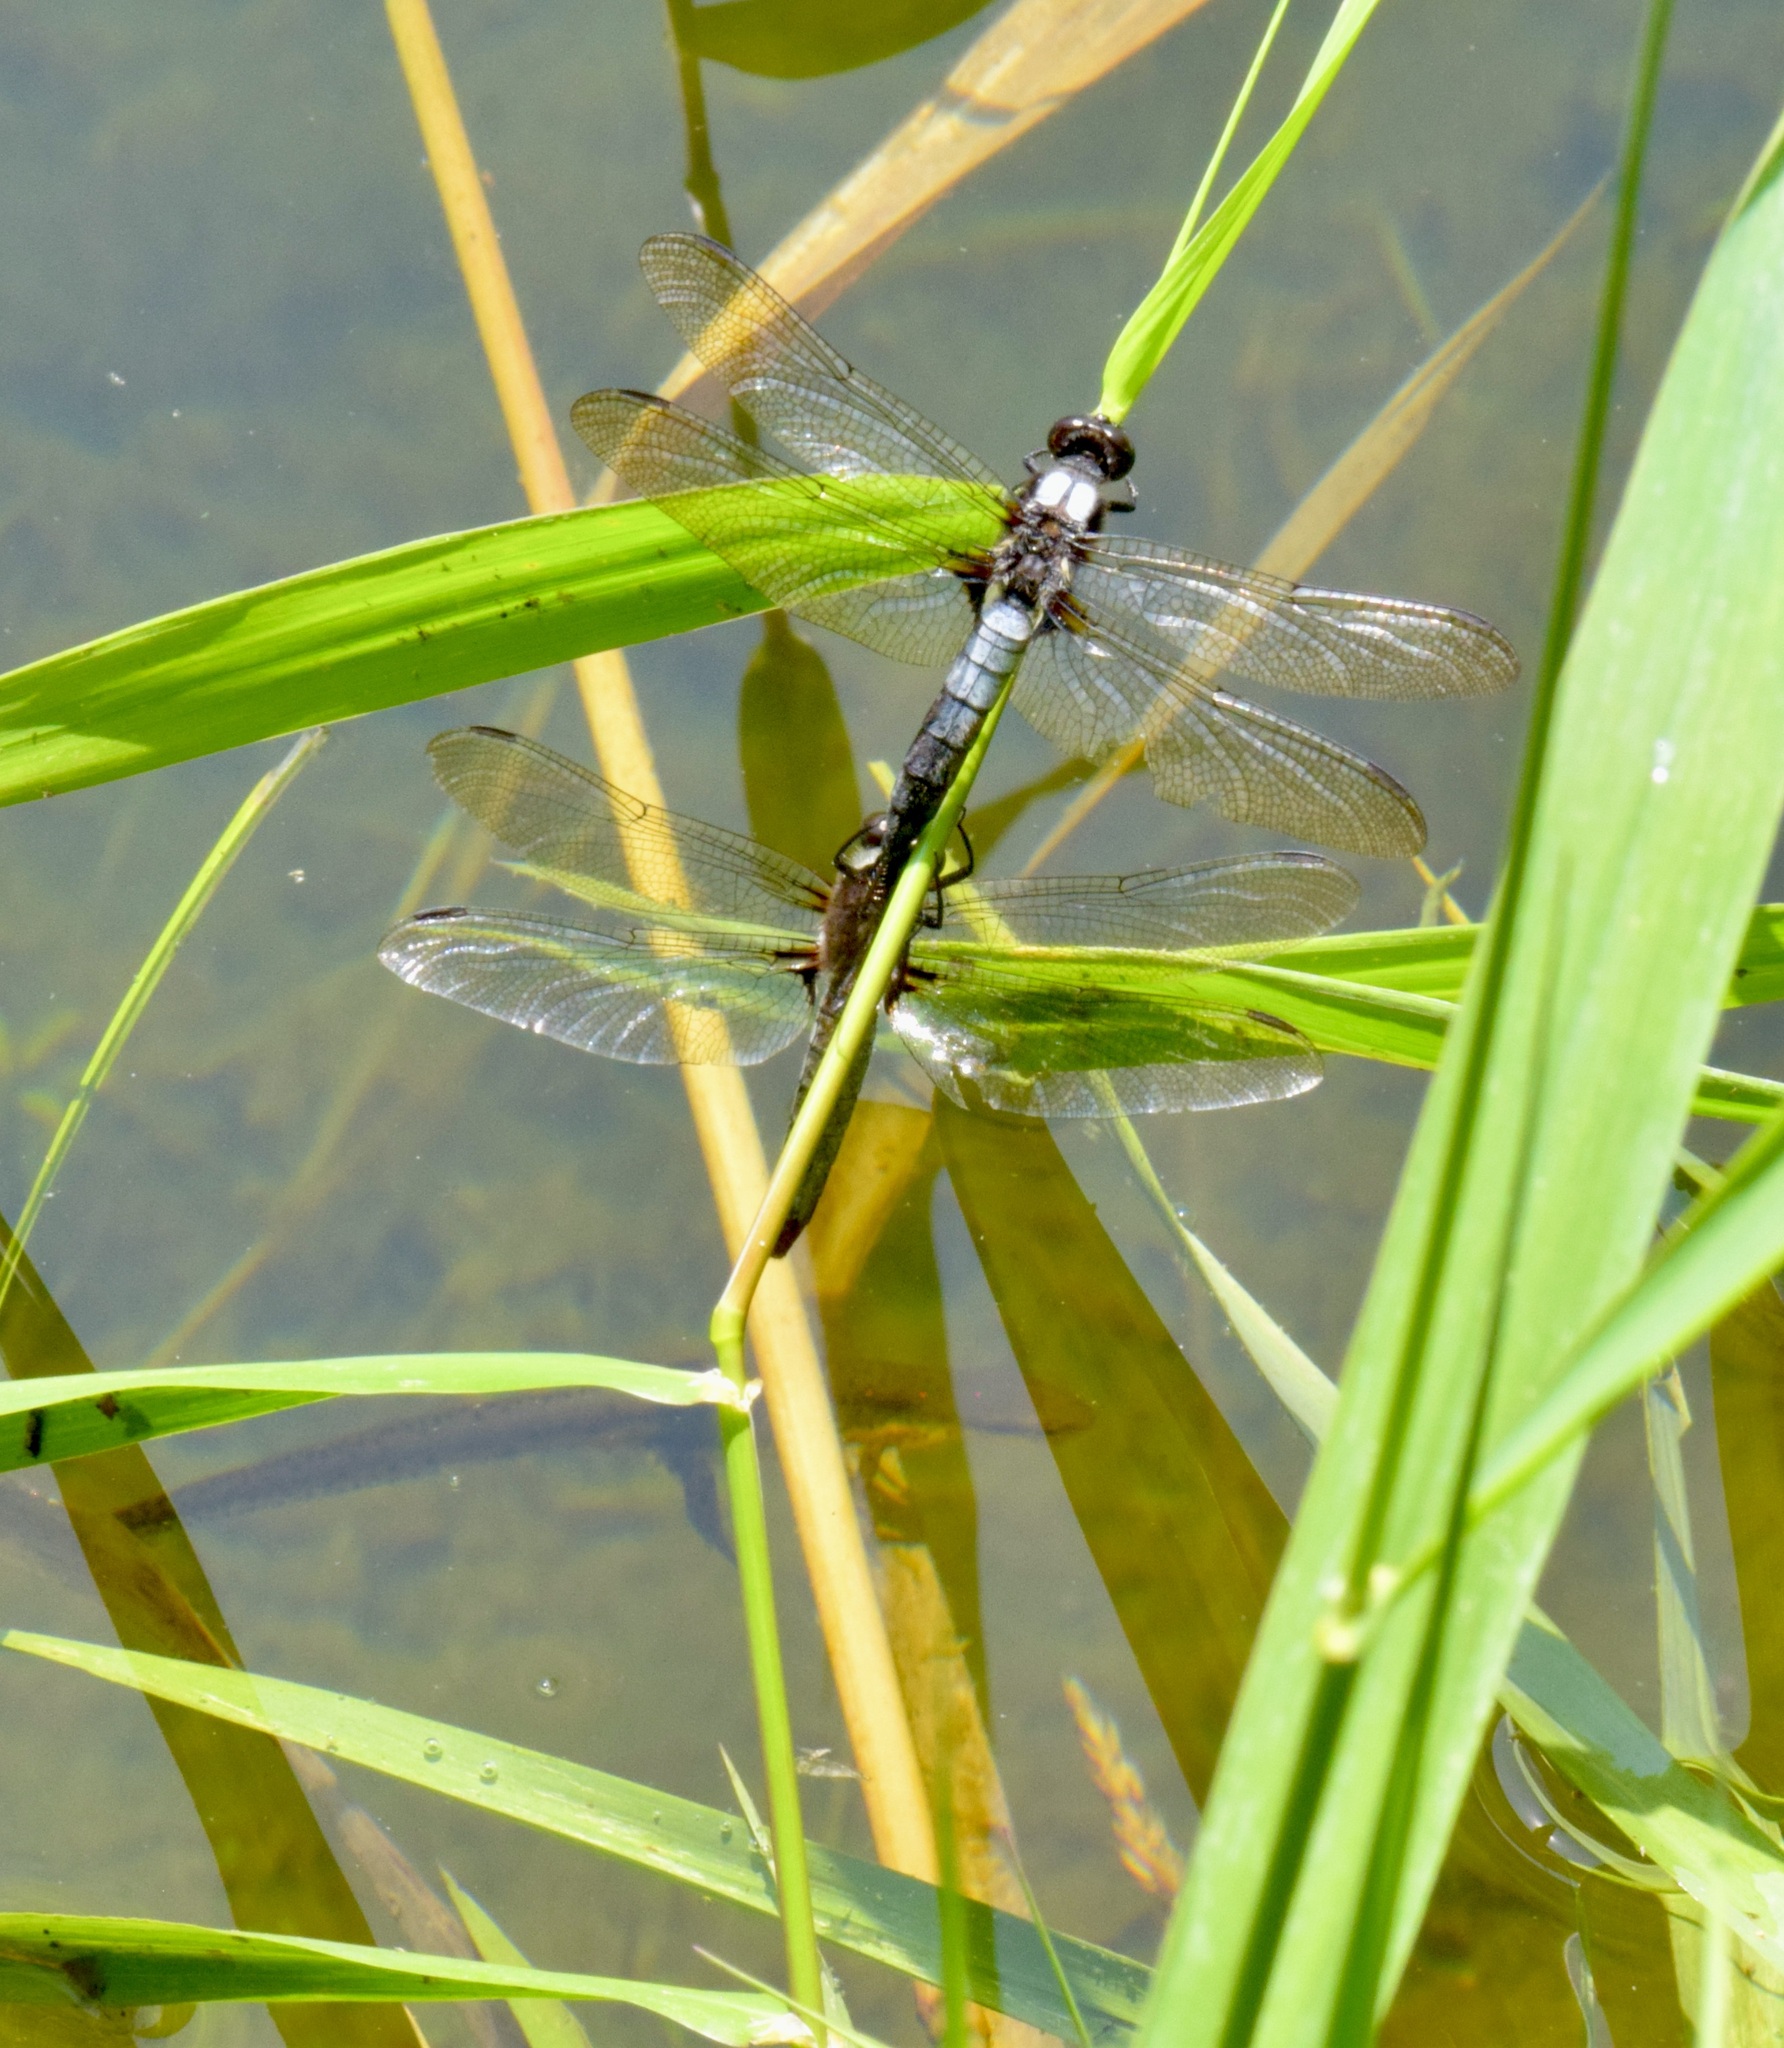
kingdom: Animalia
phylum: Arthropoda
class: Insecta
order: Odonata
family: Libellulidae
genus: Ladona
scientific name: Ladona julia
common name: Chalk-fronted corporal
